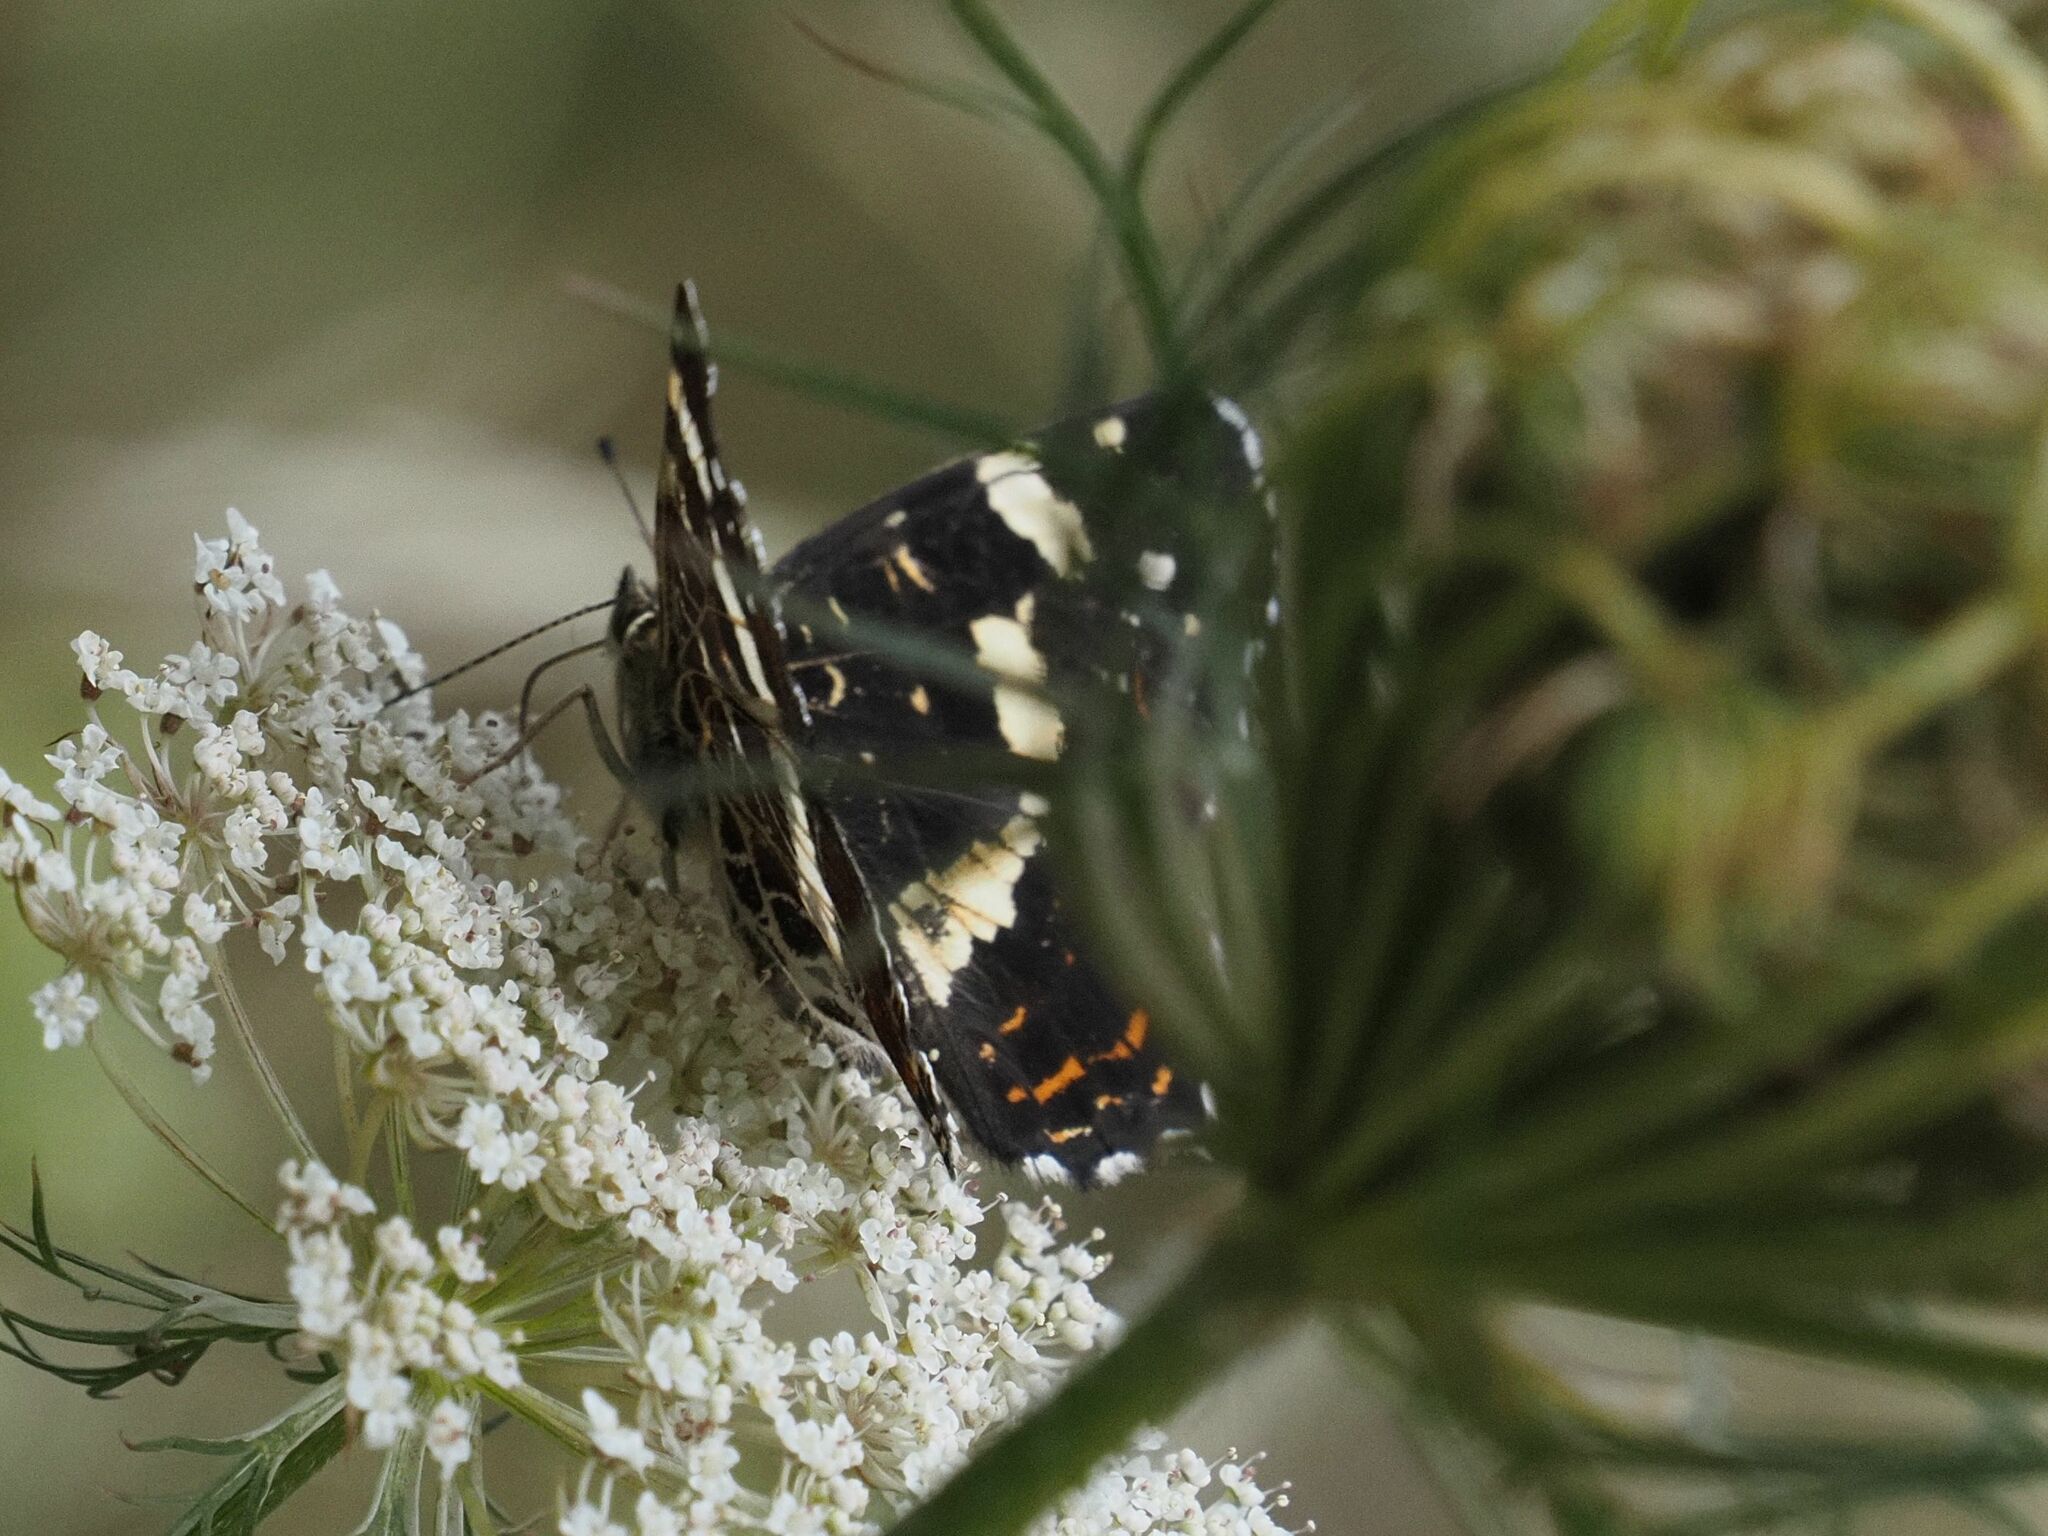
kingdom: Animalia
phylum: Arthropoda
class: Insecta
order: Lepidoptera
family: Nymphalidae
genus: Araschnia
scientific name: Araschnia levana
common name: Map butterfly
